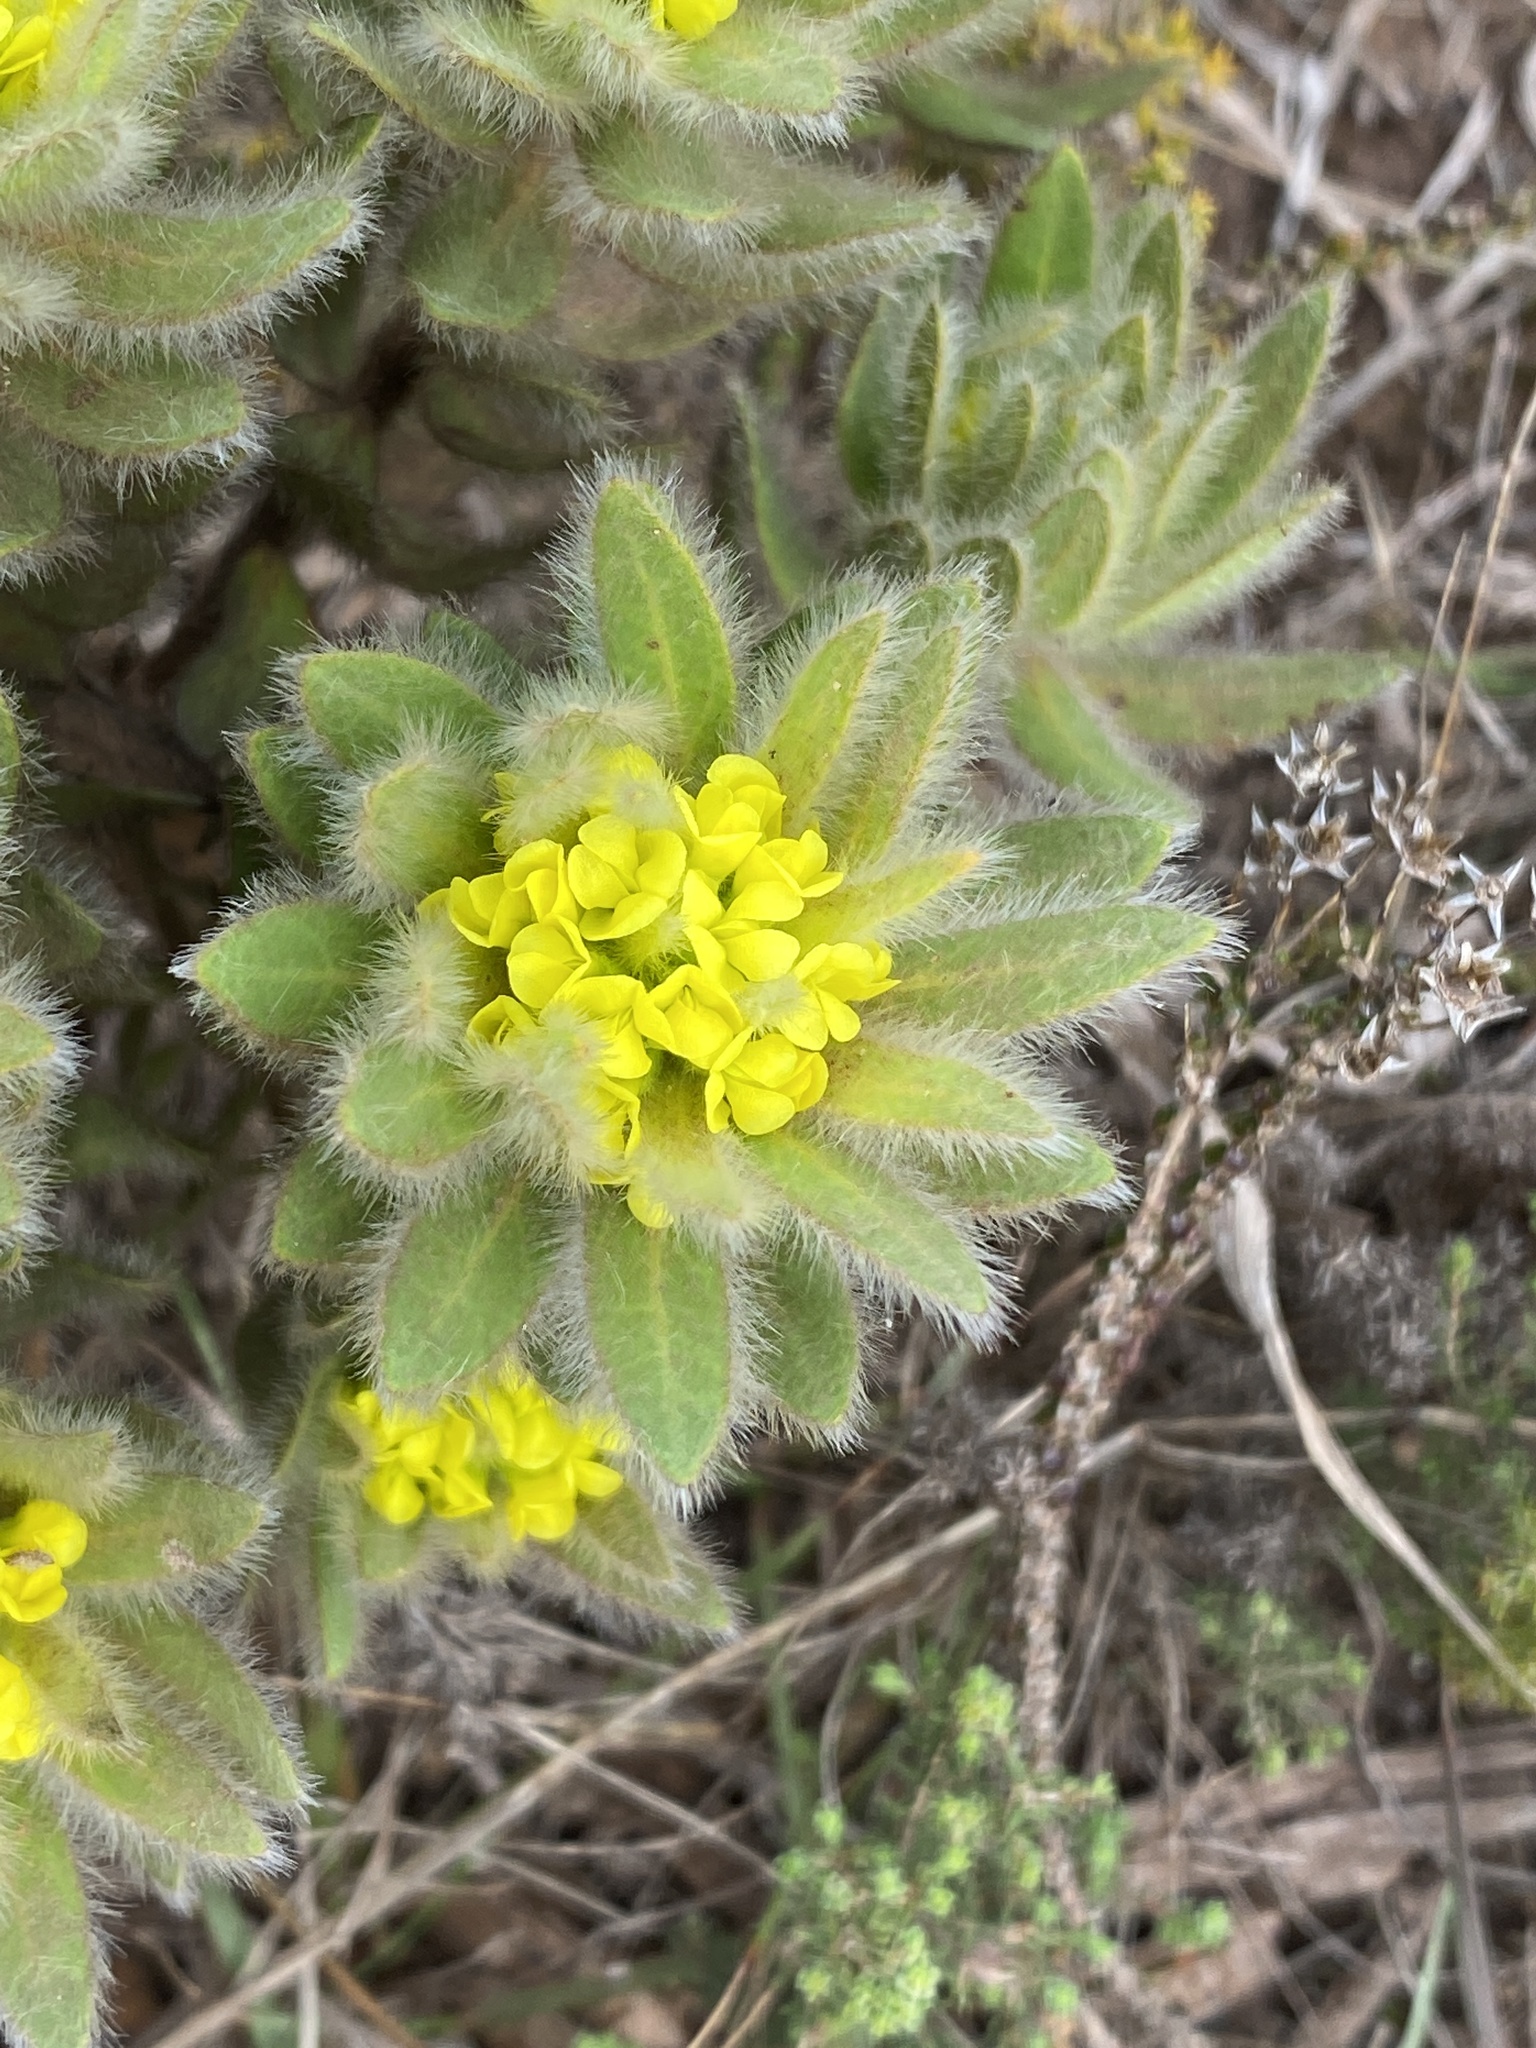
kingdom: Plantae
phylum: Tracheophyta
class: Magnoliopsida
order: Fabales
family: Fabaceae
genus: Xiphotheca
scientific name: Xiphotheca guthriei
